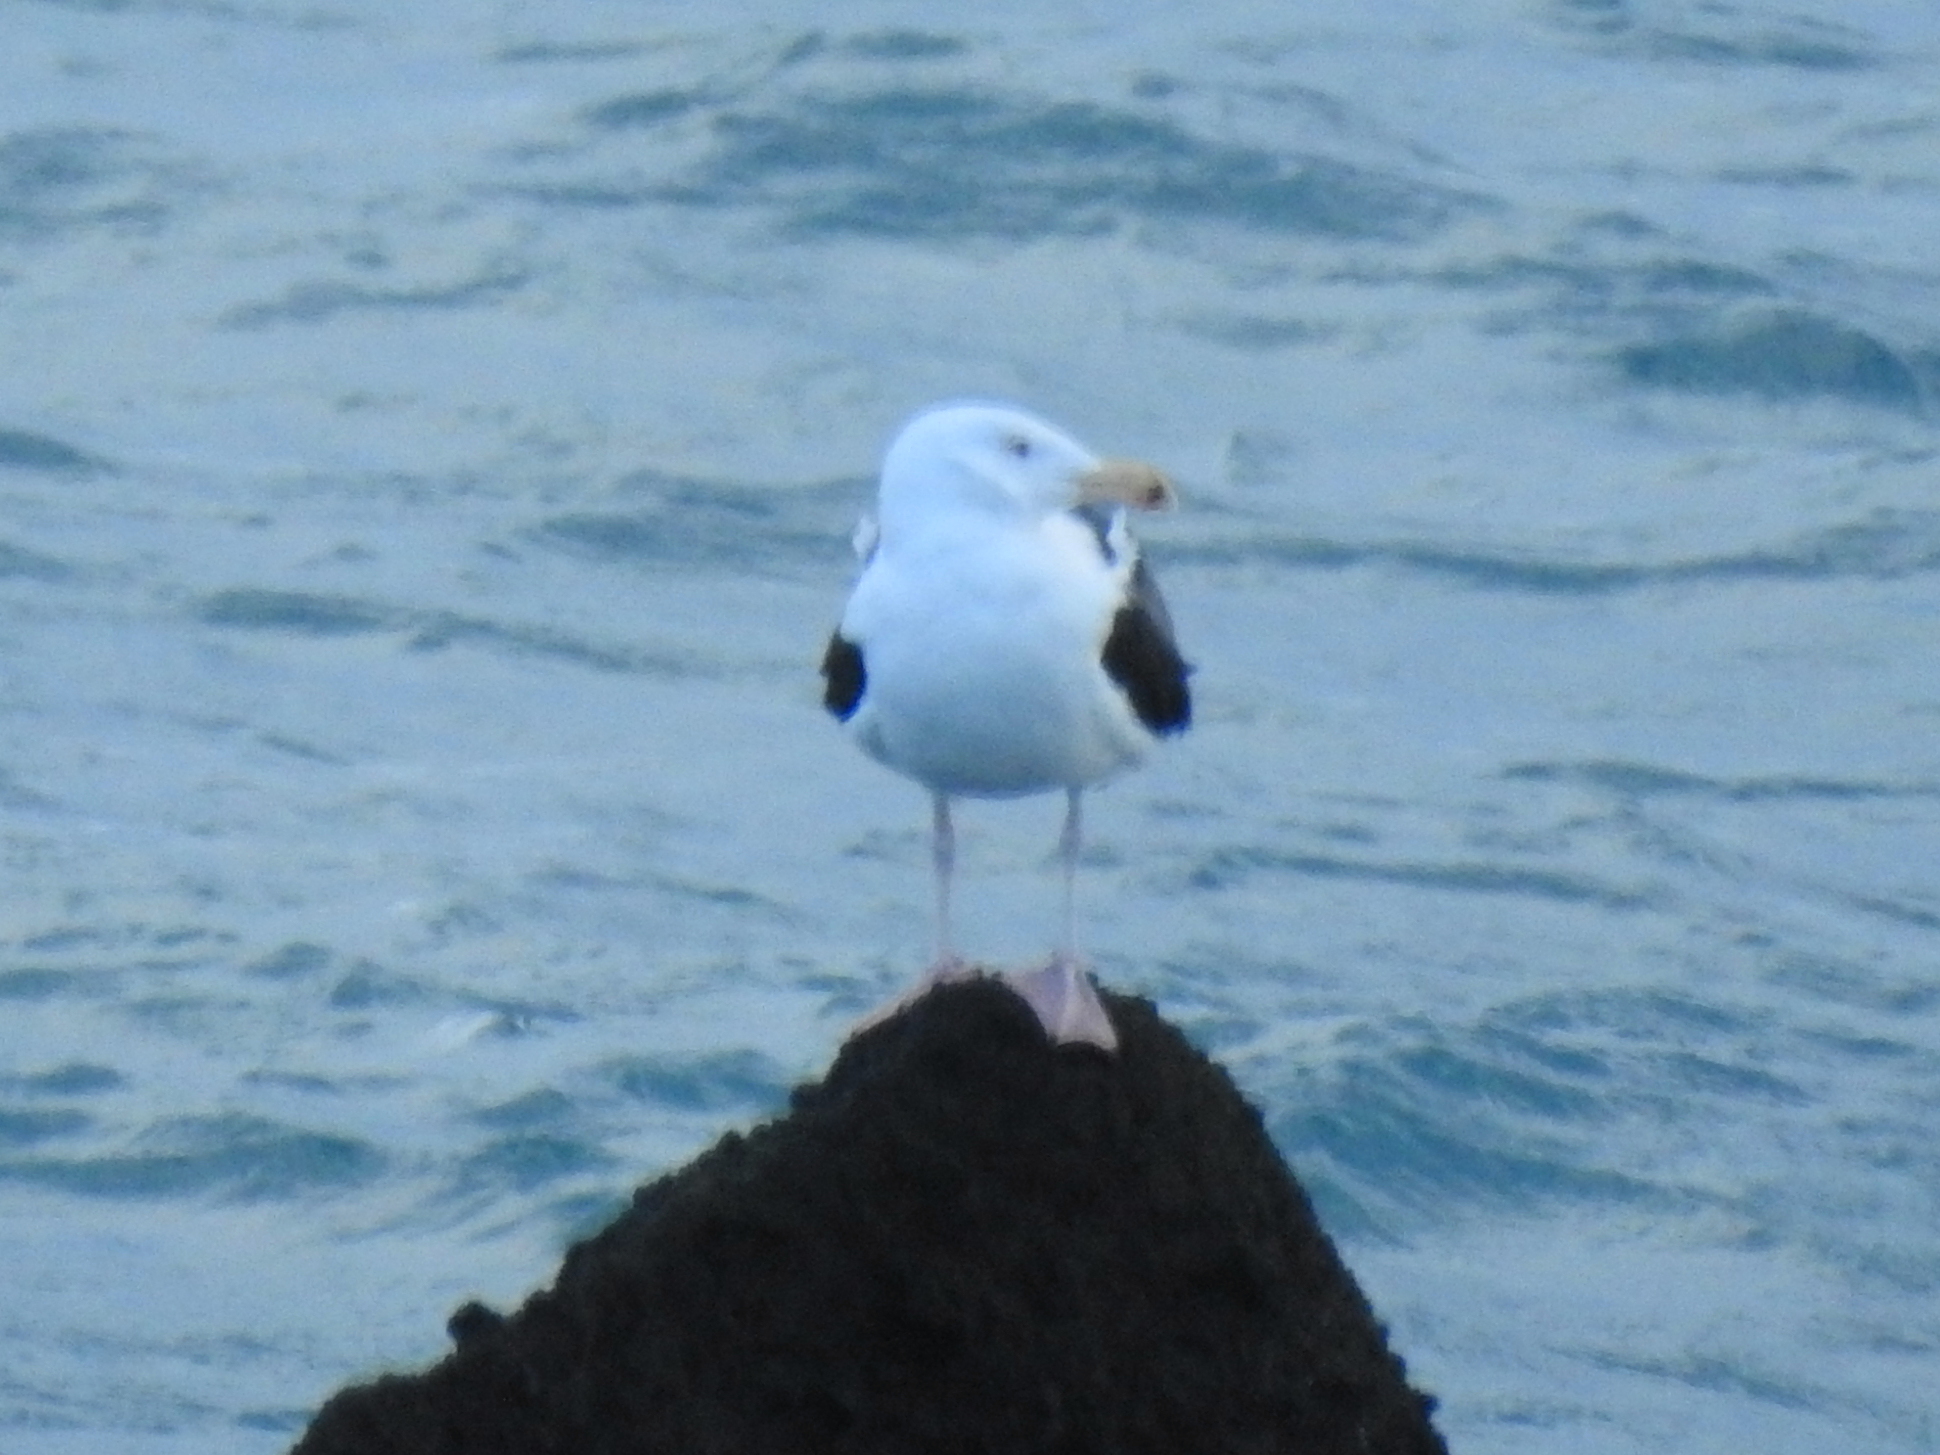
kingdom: Animalia
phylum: Chordata
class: Aves
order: Charadriiformes
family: Laridae
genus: Larus
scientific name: Larus marinus
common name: Great black-backed gull
